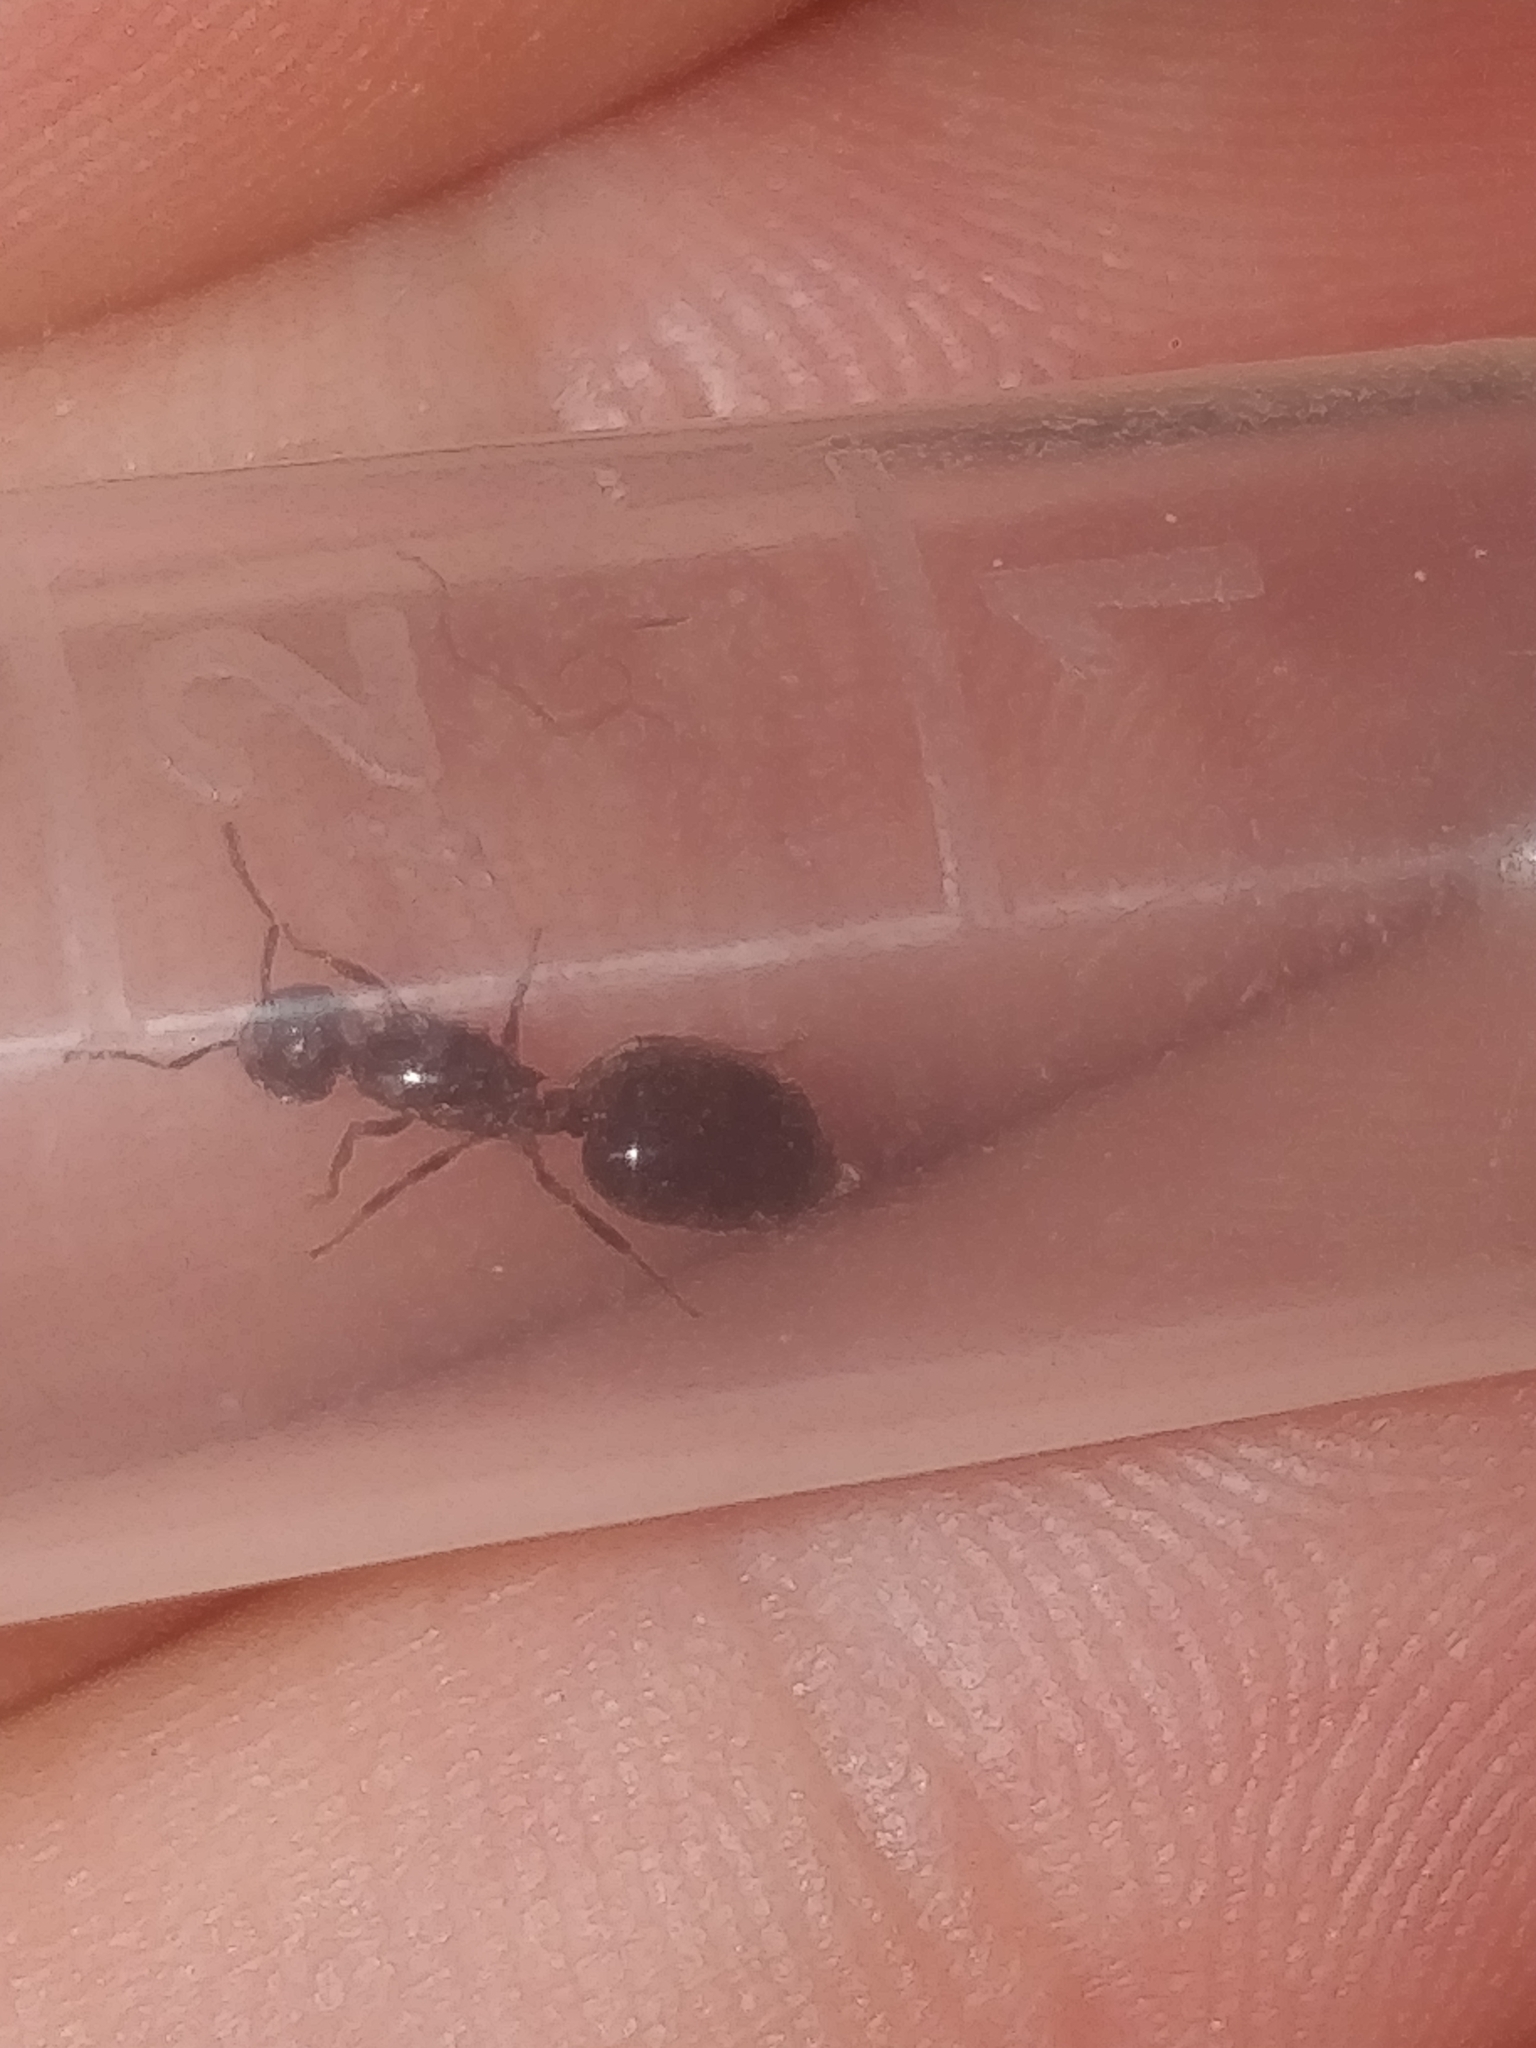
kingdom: Animalia
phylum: Arthropoda
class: Insecta
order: Hymenoptera
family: Formicidae
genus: Crematogaster
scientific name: Crematogaster cerasi
